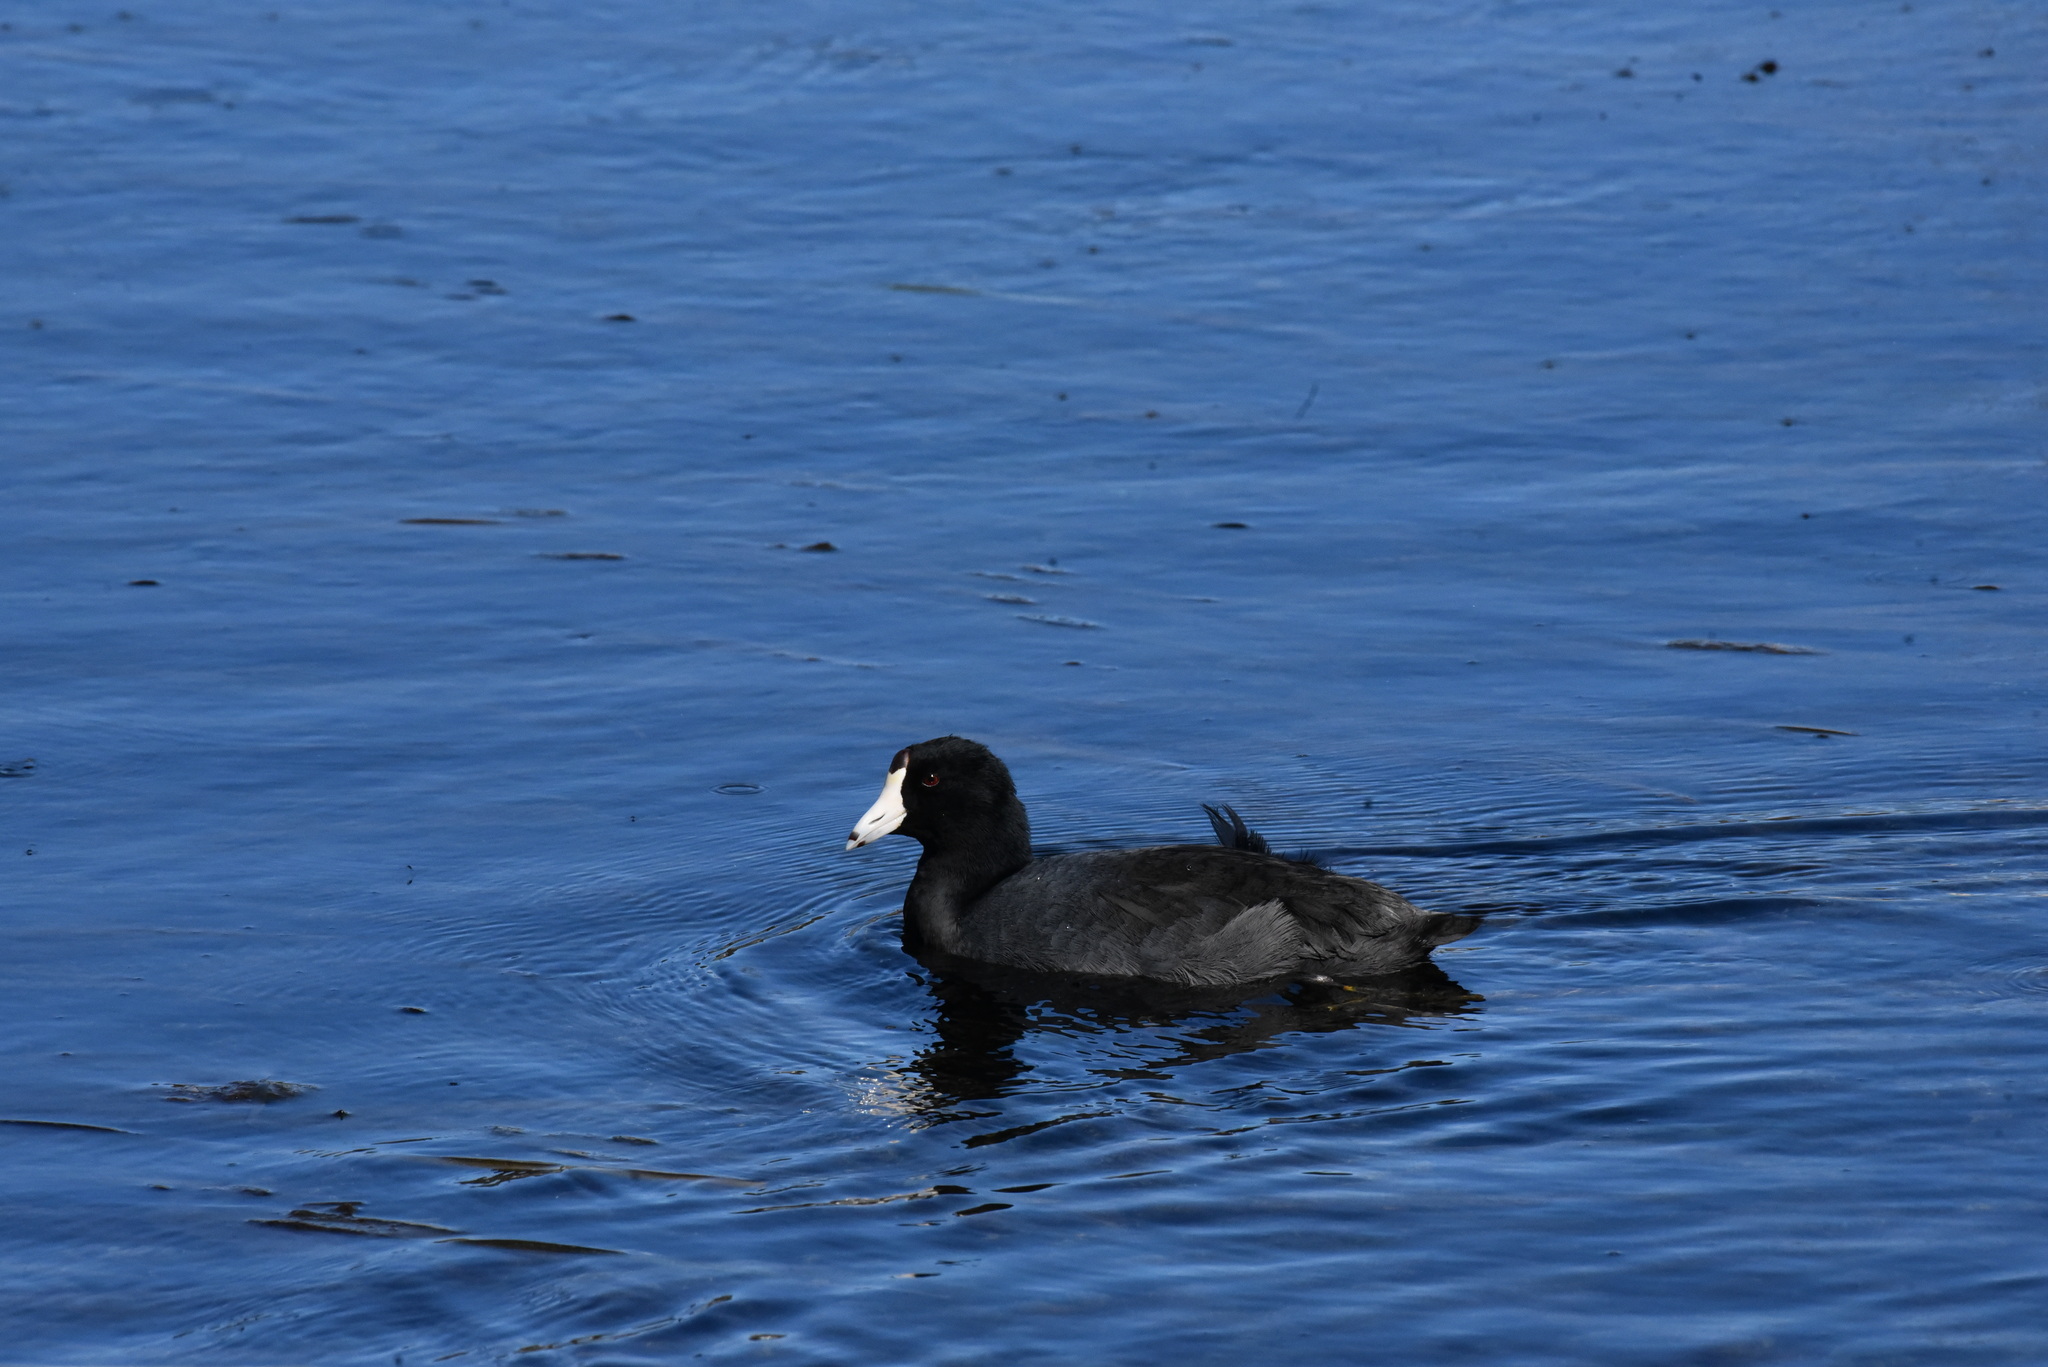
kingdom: Animalia
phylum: Chordata
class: Aves
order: Gruiformes
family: Rallidae
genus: Fulica
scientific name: Fulica americana
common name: American coot
